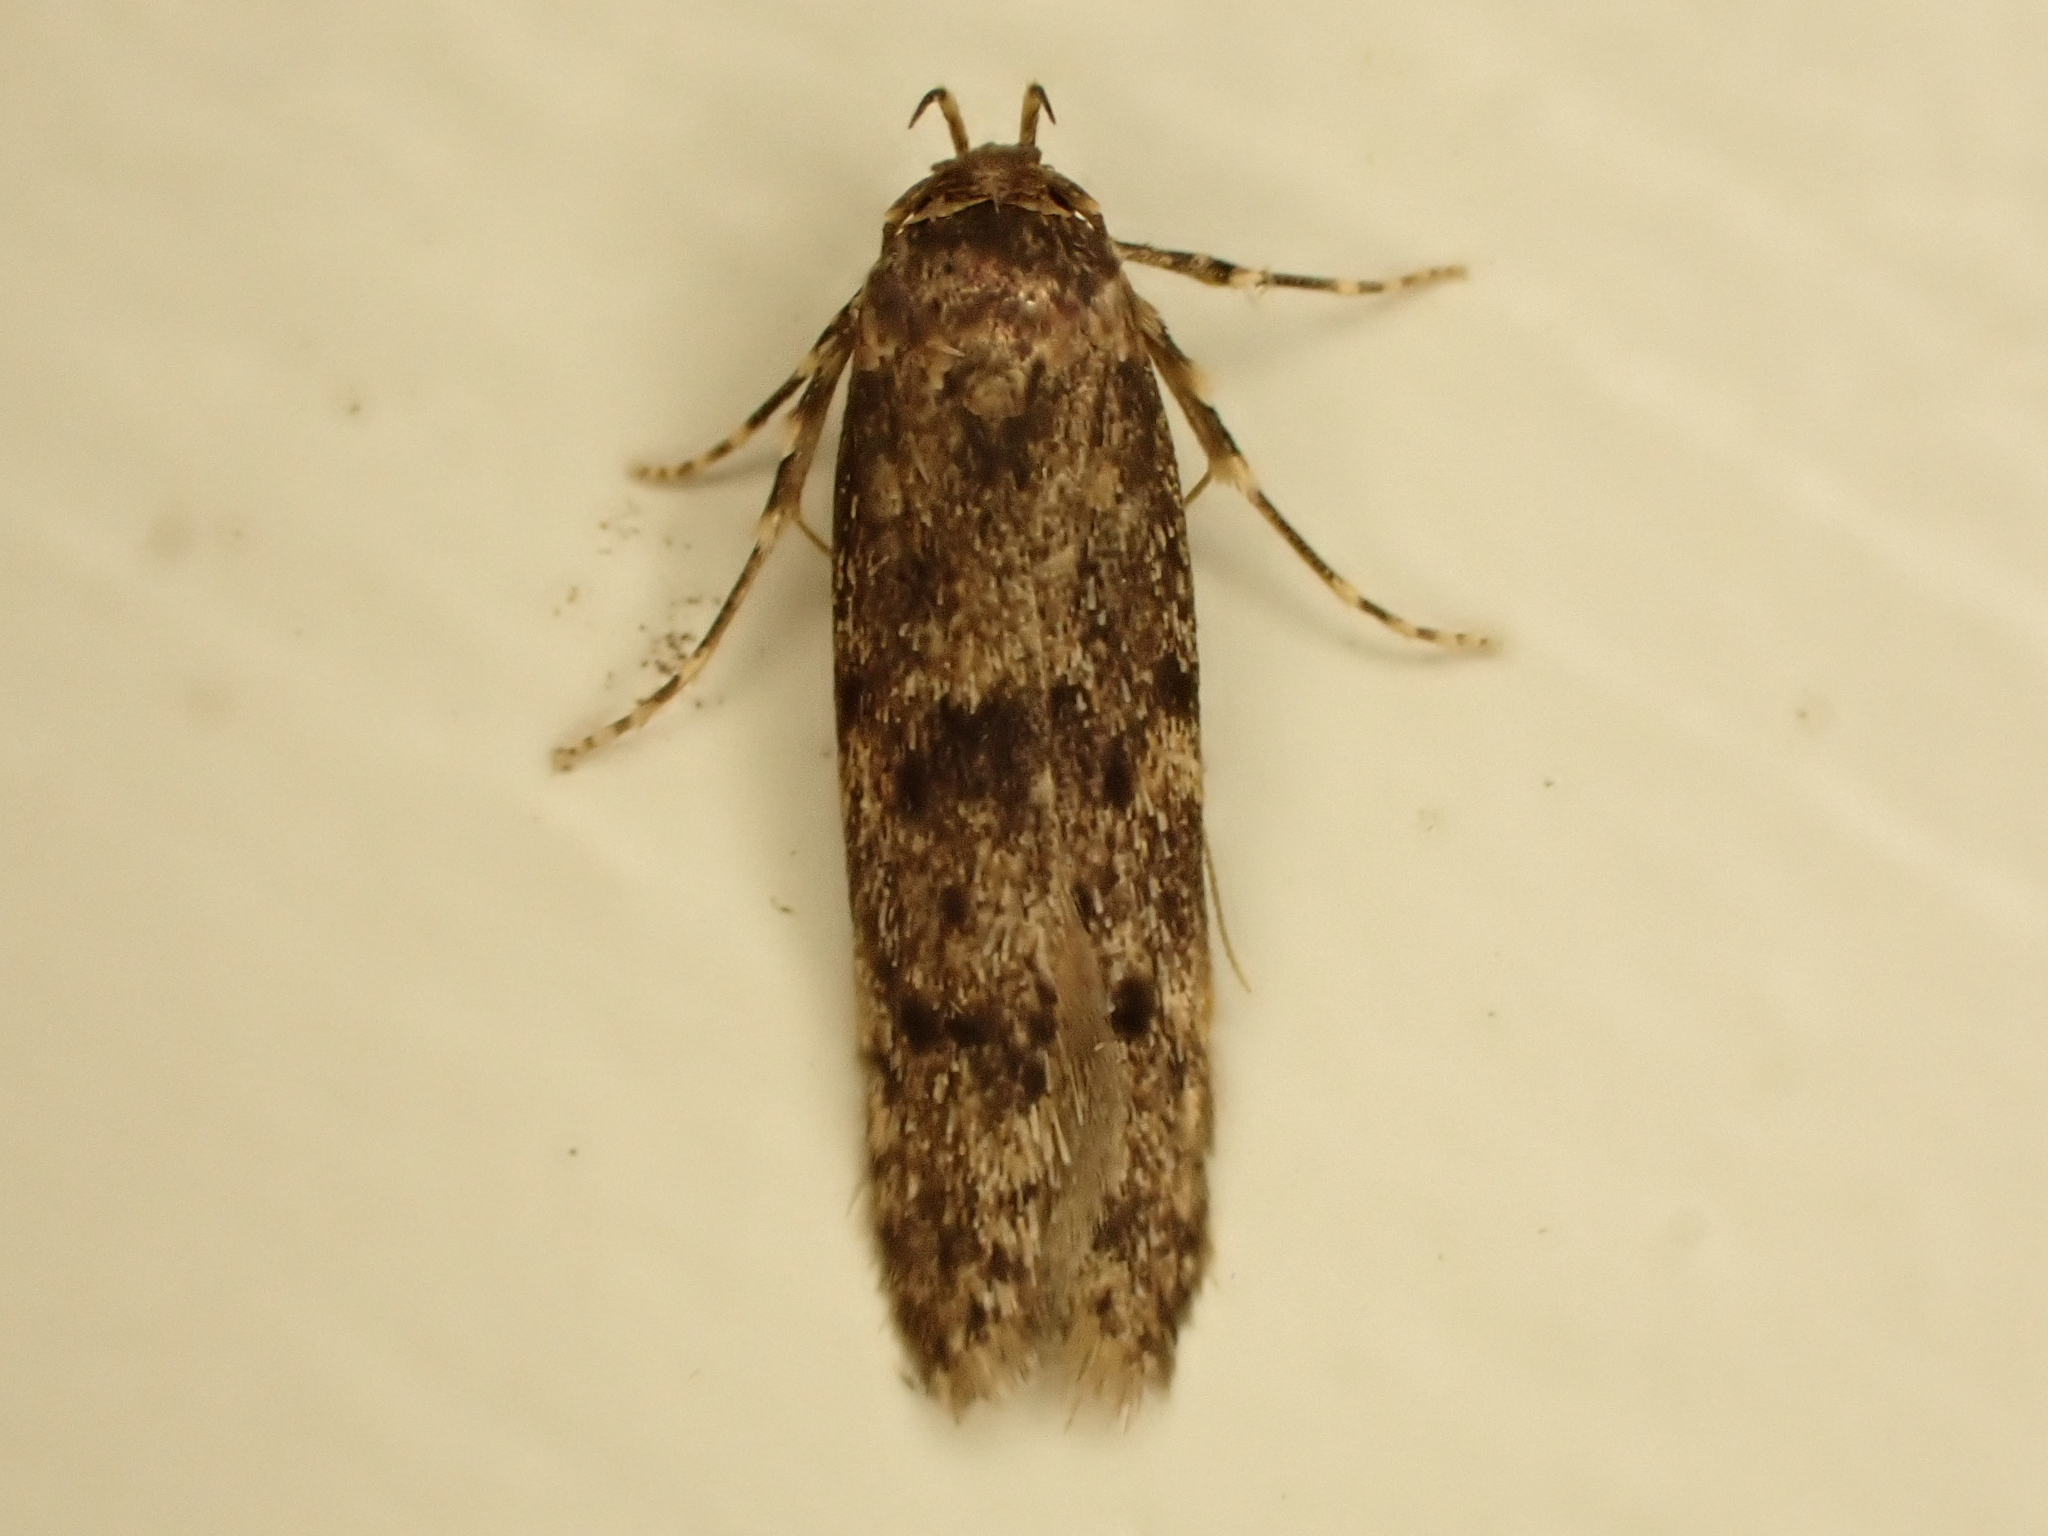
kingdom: Animalia
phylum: Arthropoda
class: Insecta
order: Lepidoptera
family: Blastobasidae
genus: Blastobasis
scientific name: Blastobasis marmorosella
